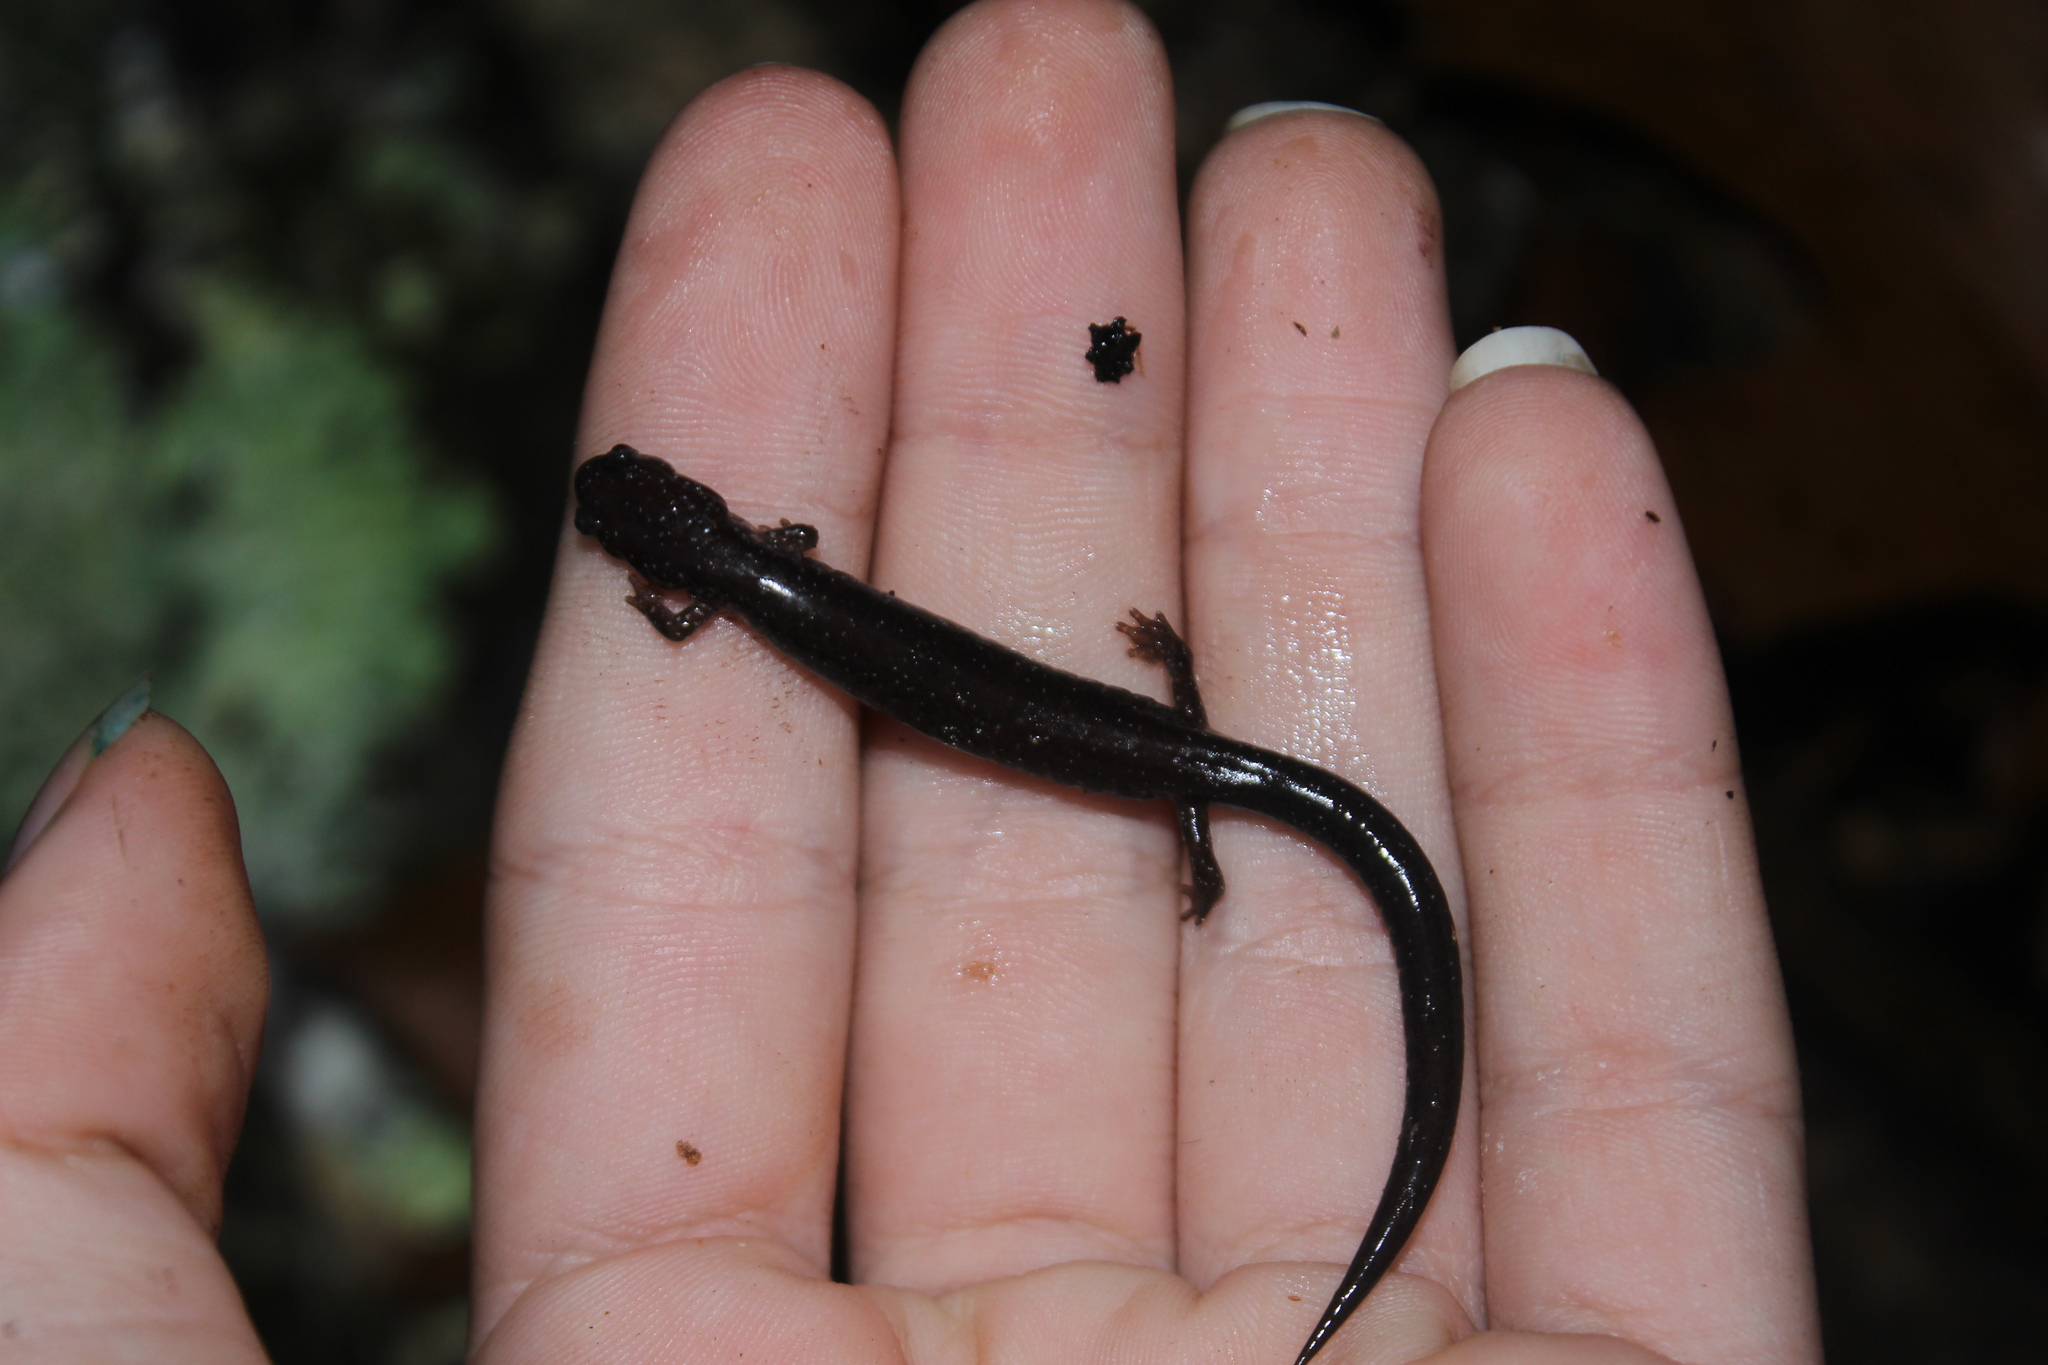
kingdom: Animalia
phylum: Chordata
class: Amphibia
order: Caudata
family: Plethodontidae
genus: Plethodon
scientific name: Plethodon cinereus
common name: Redback salamander
